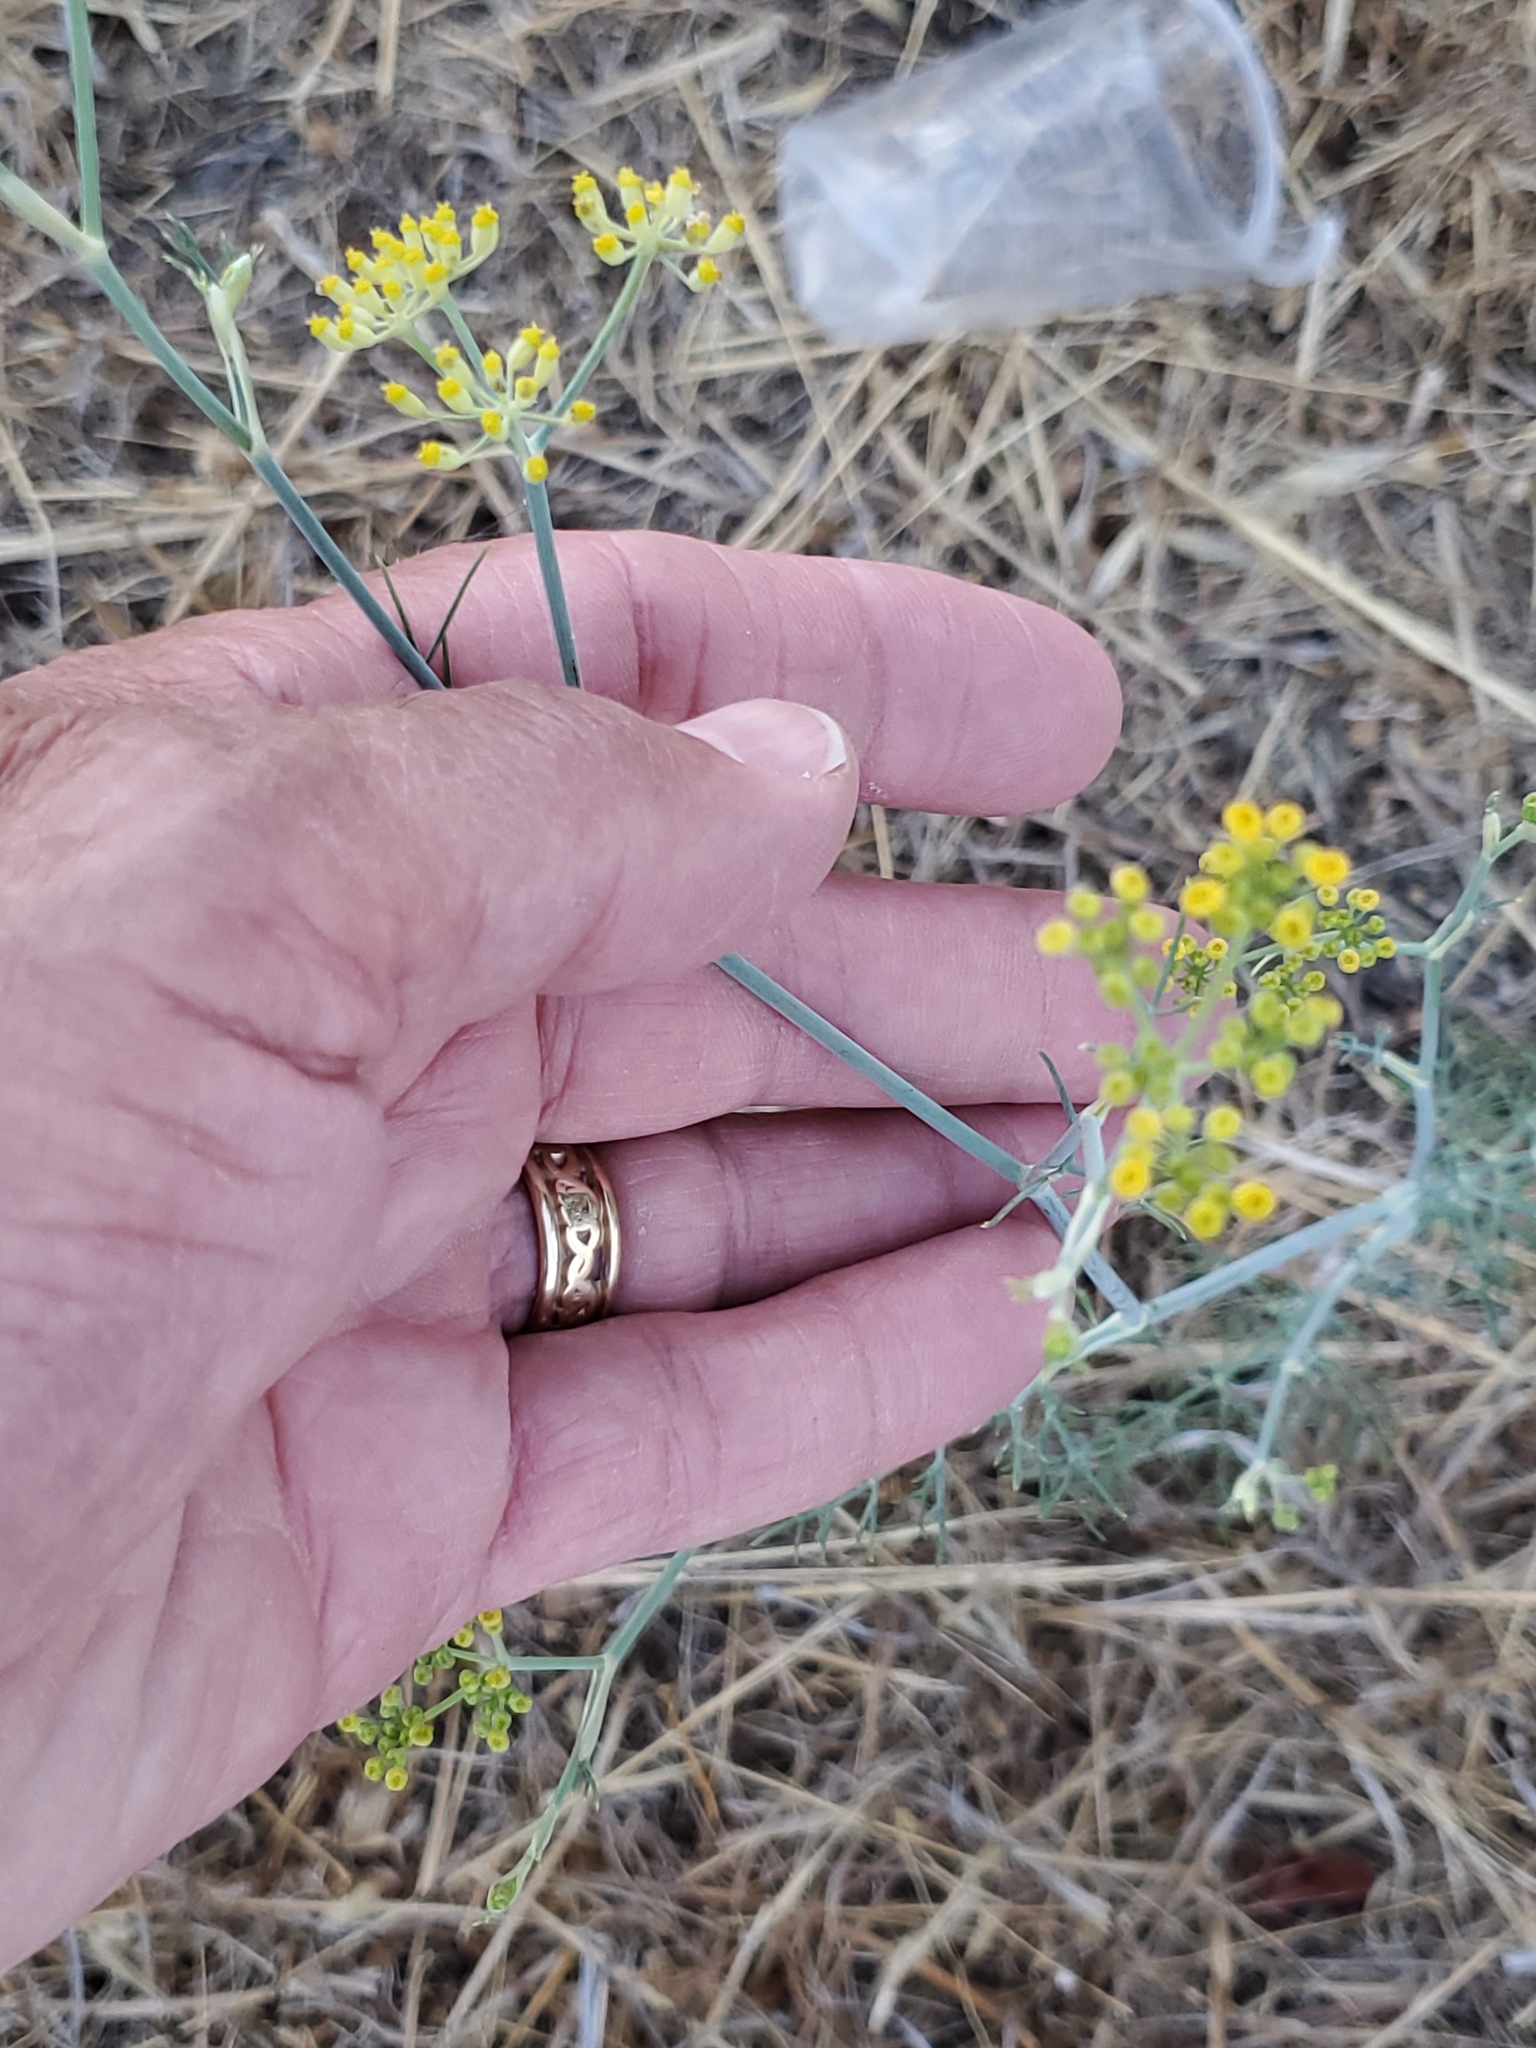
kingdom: Plantae
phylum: Tracheophyta
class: Magnoliopsida
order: Apiales
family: Apiaceae
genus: Foeniculum
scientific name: Foeniculum vulgare
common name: Fennel
